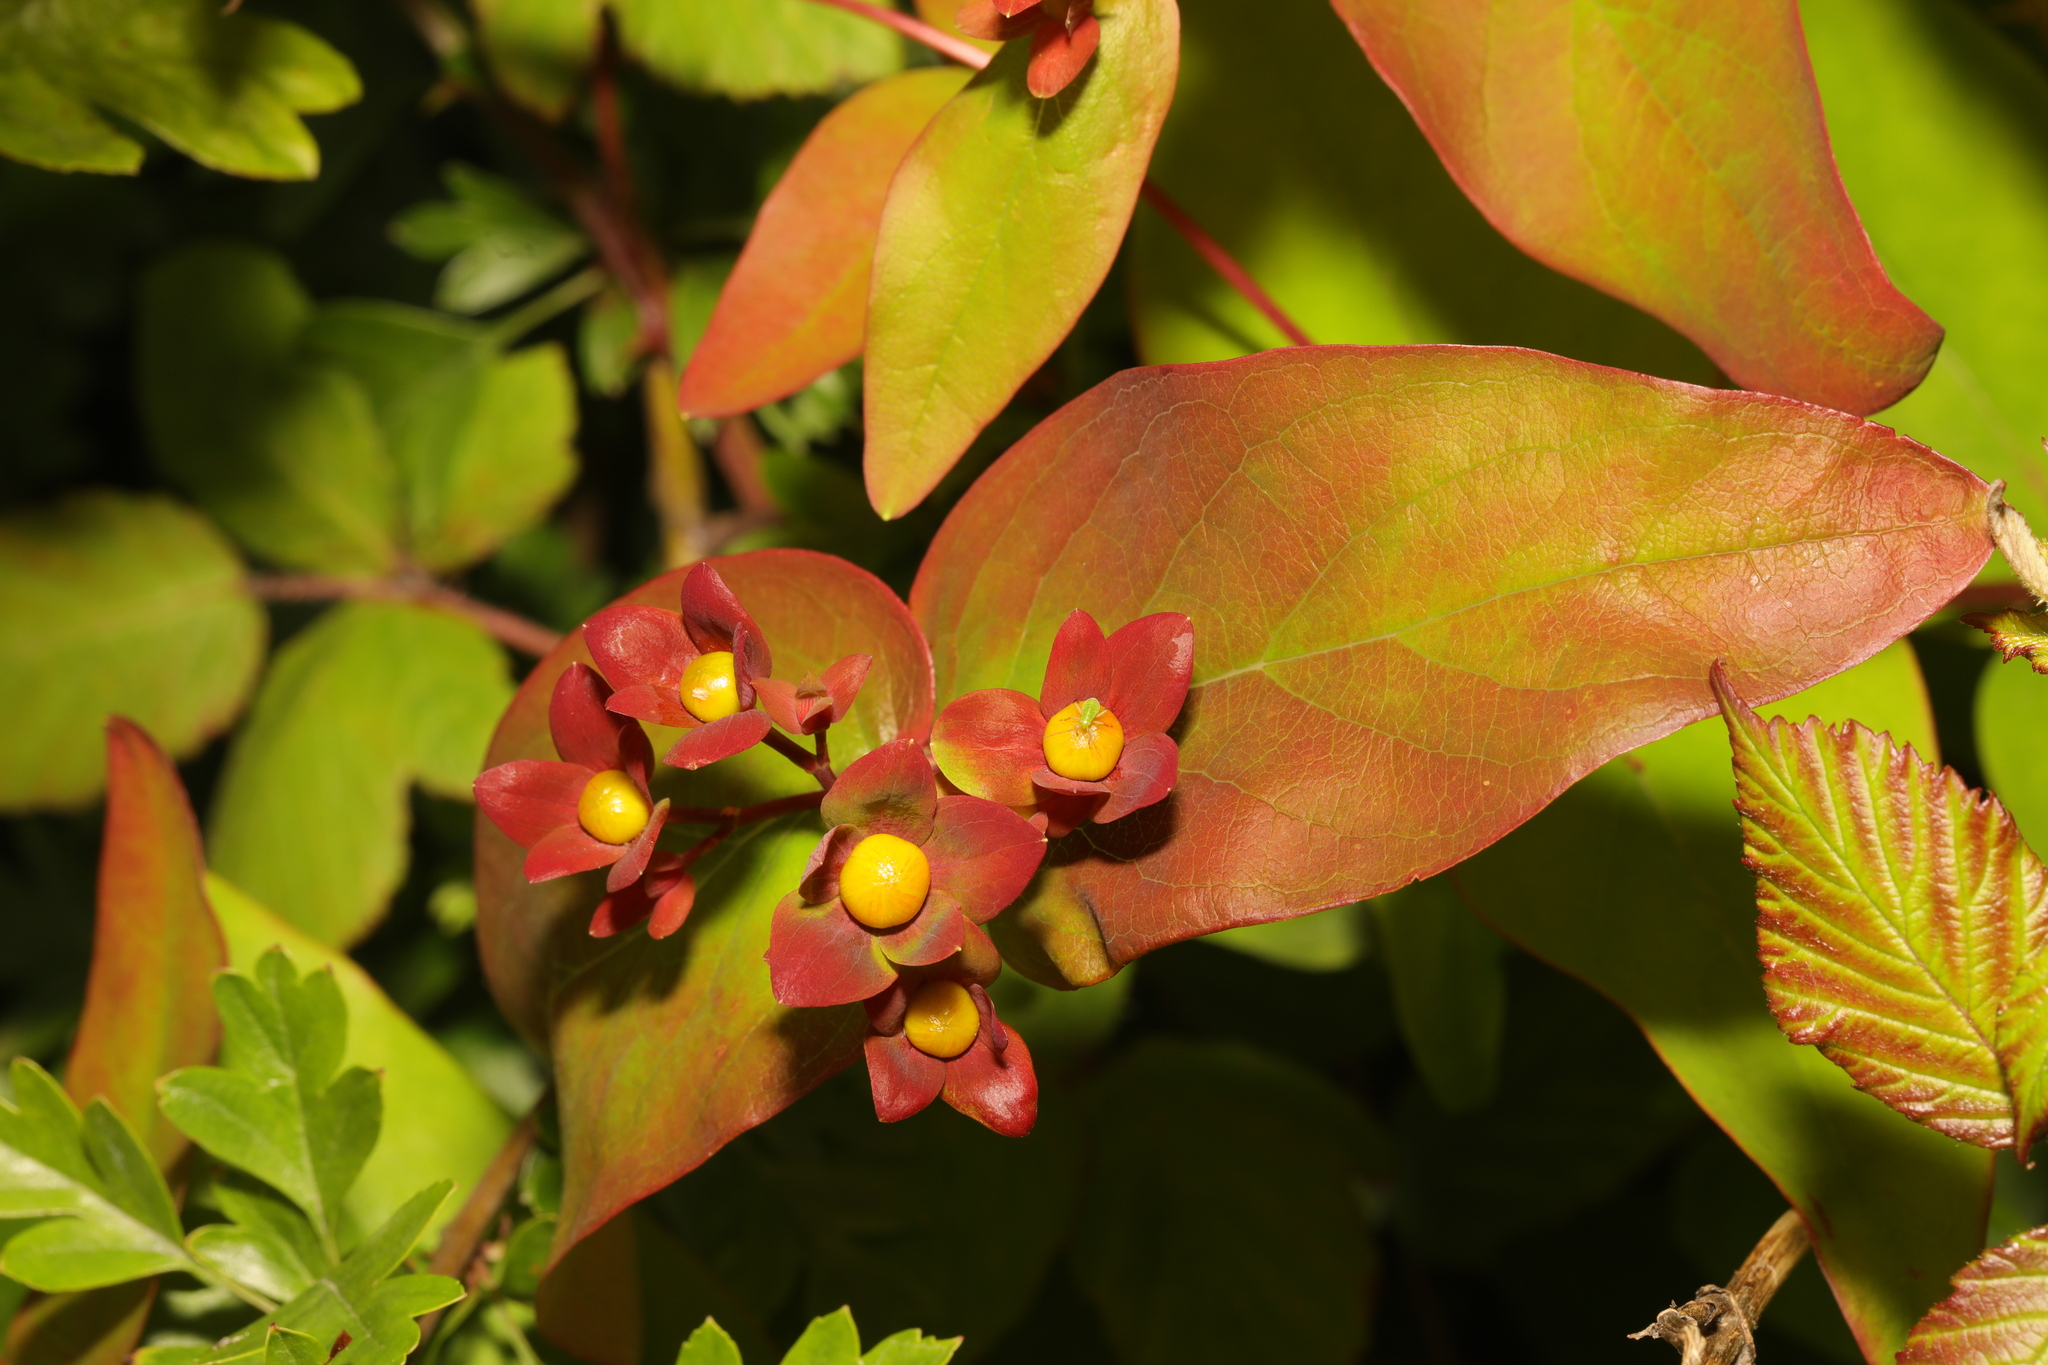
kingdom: Plantae
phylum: Tracheophyta
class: Magnoliopsida
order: Malpighiales
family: Hypericaceae
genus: Hypericum
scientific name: Hypericum androsaemum
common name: Sweet-amber
